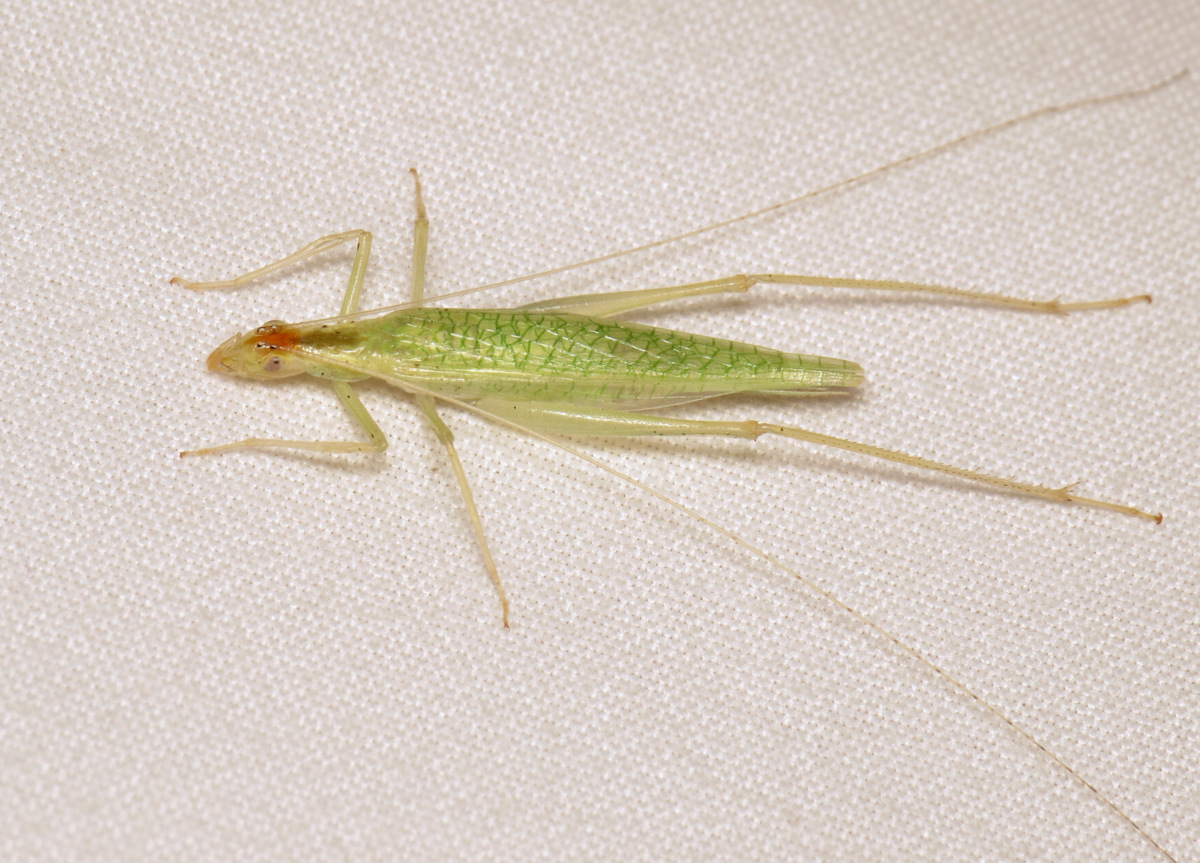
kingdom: Animalia
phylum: Arthropoda
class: Insecta
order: Orthoptera
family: Gryllidae
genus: Oecanthus
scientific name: Oecanthus niveus
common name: Narrow-winged tree cricket
